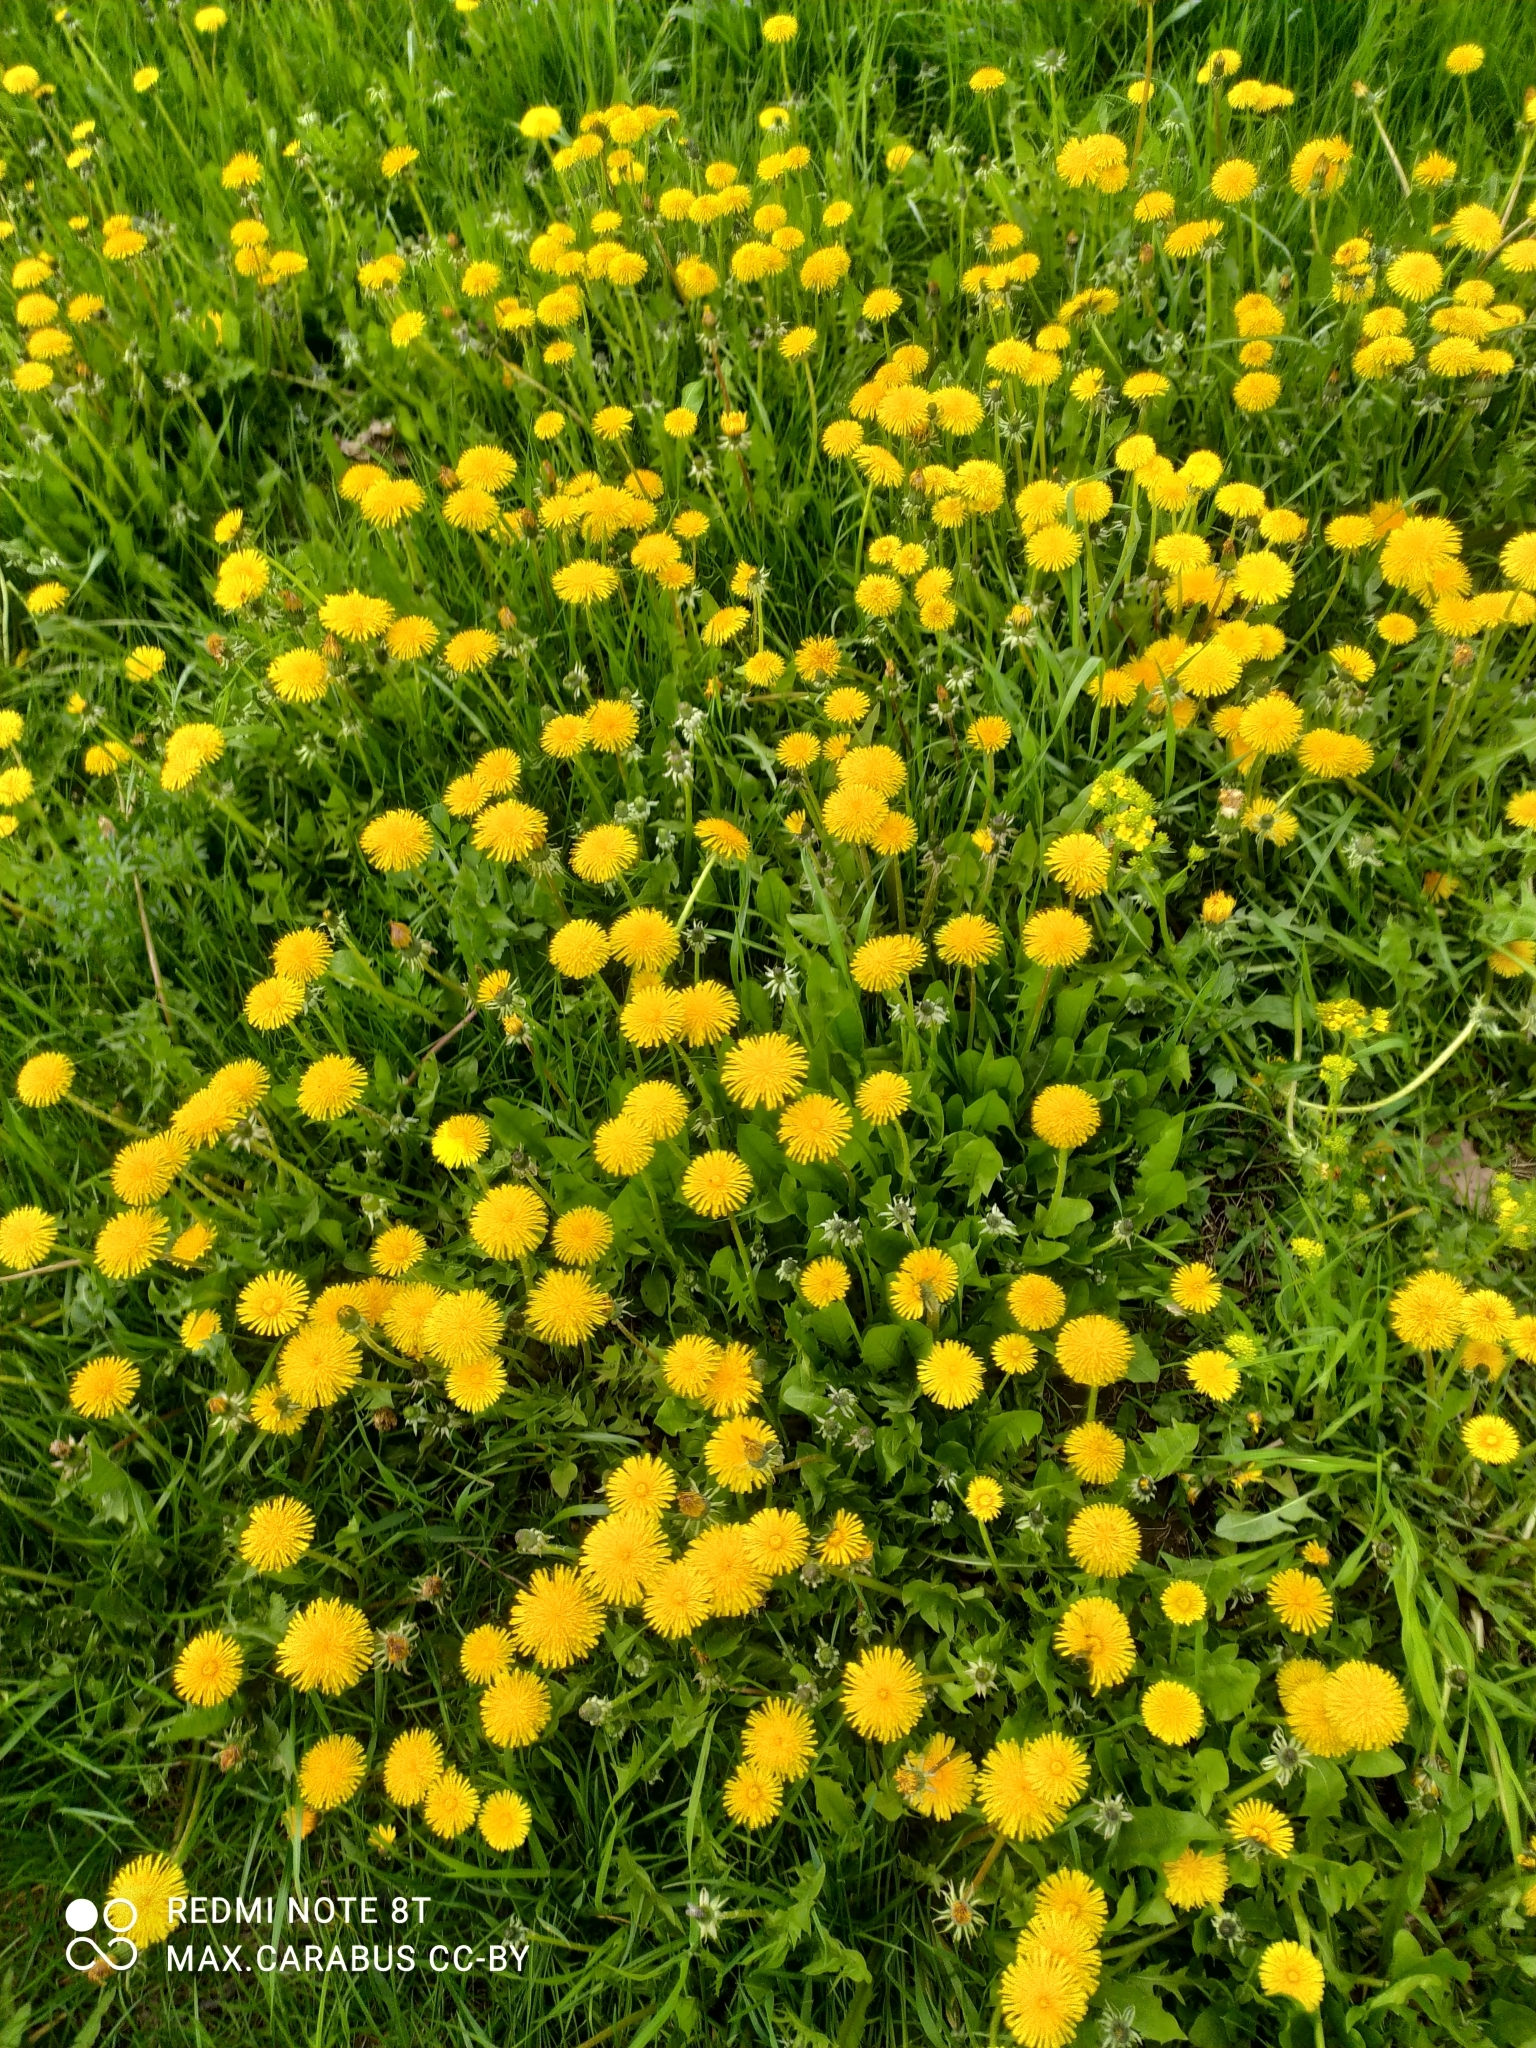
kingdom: Plantae
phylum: Tracheophyta
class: Magnoliopsida
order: Asterales
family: Asteraceae
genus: Taraxacum
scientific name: Taraxacum officinale
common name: Common dandelion
